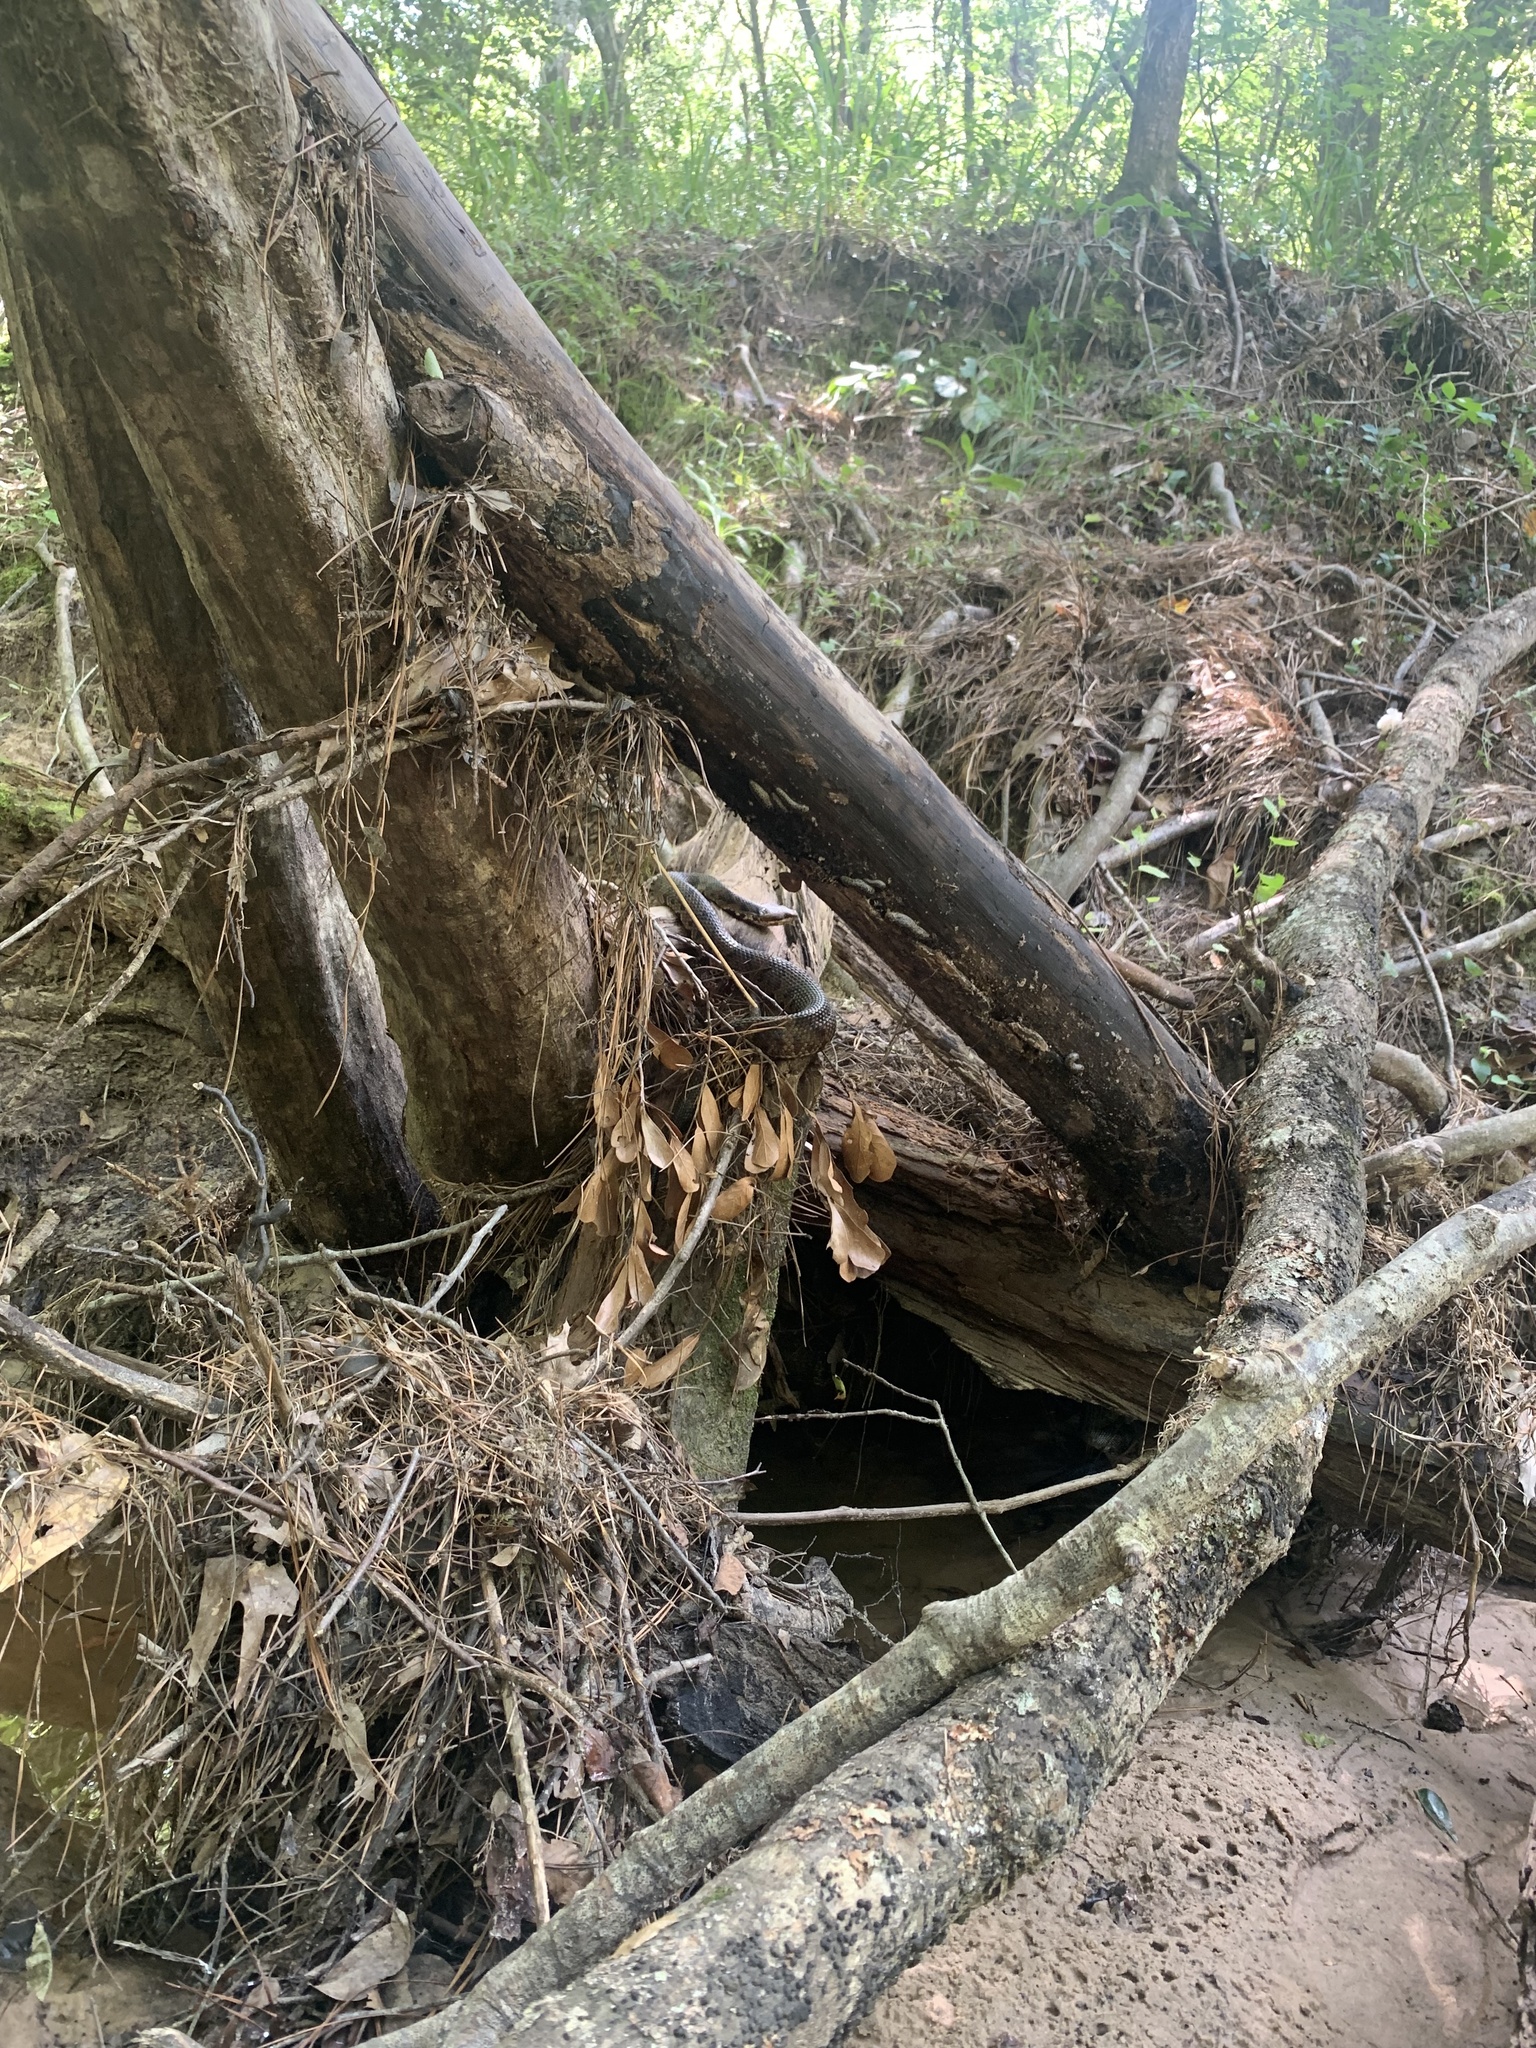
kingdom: Animalia
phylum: Chordata
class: Squamata
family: Viperidae
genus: Agkistrodon
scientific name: Agkistrodon piscivorus
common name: Cottonmouth
